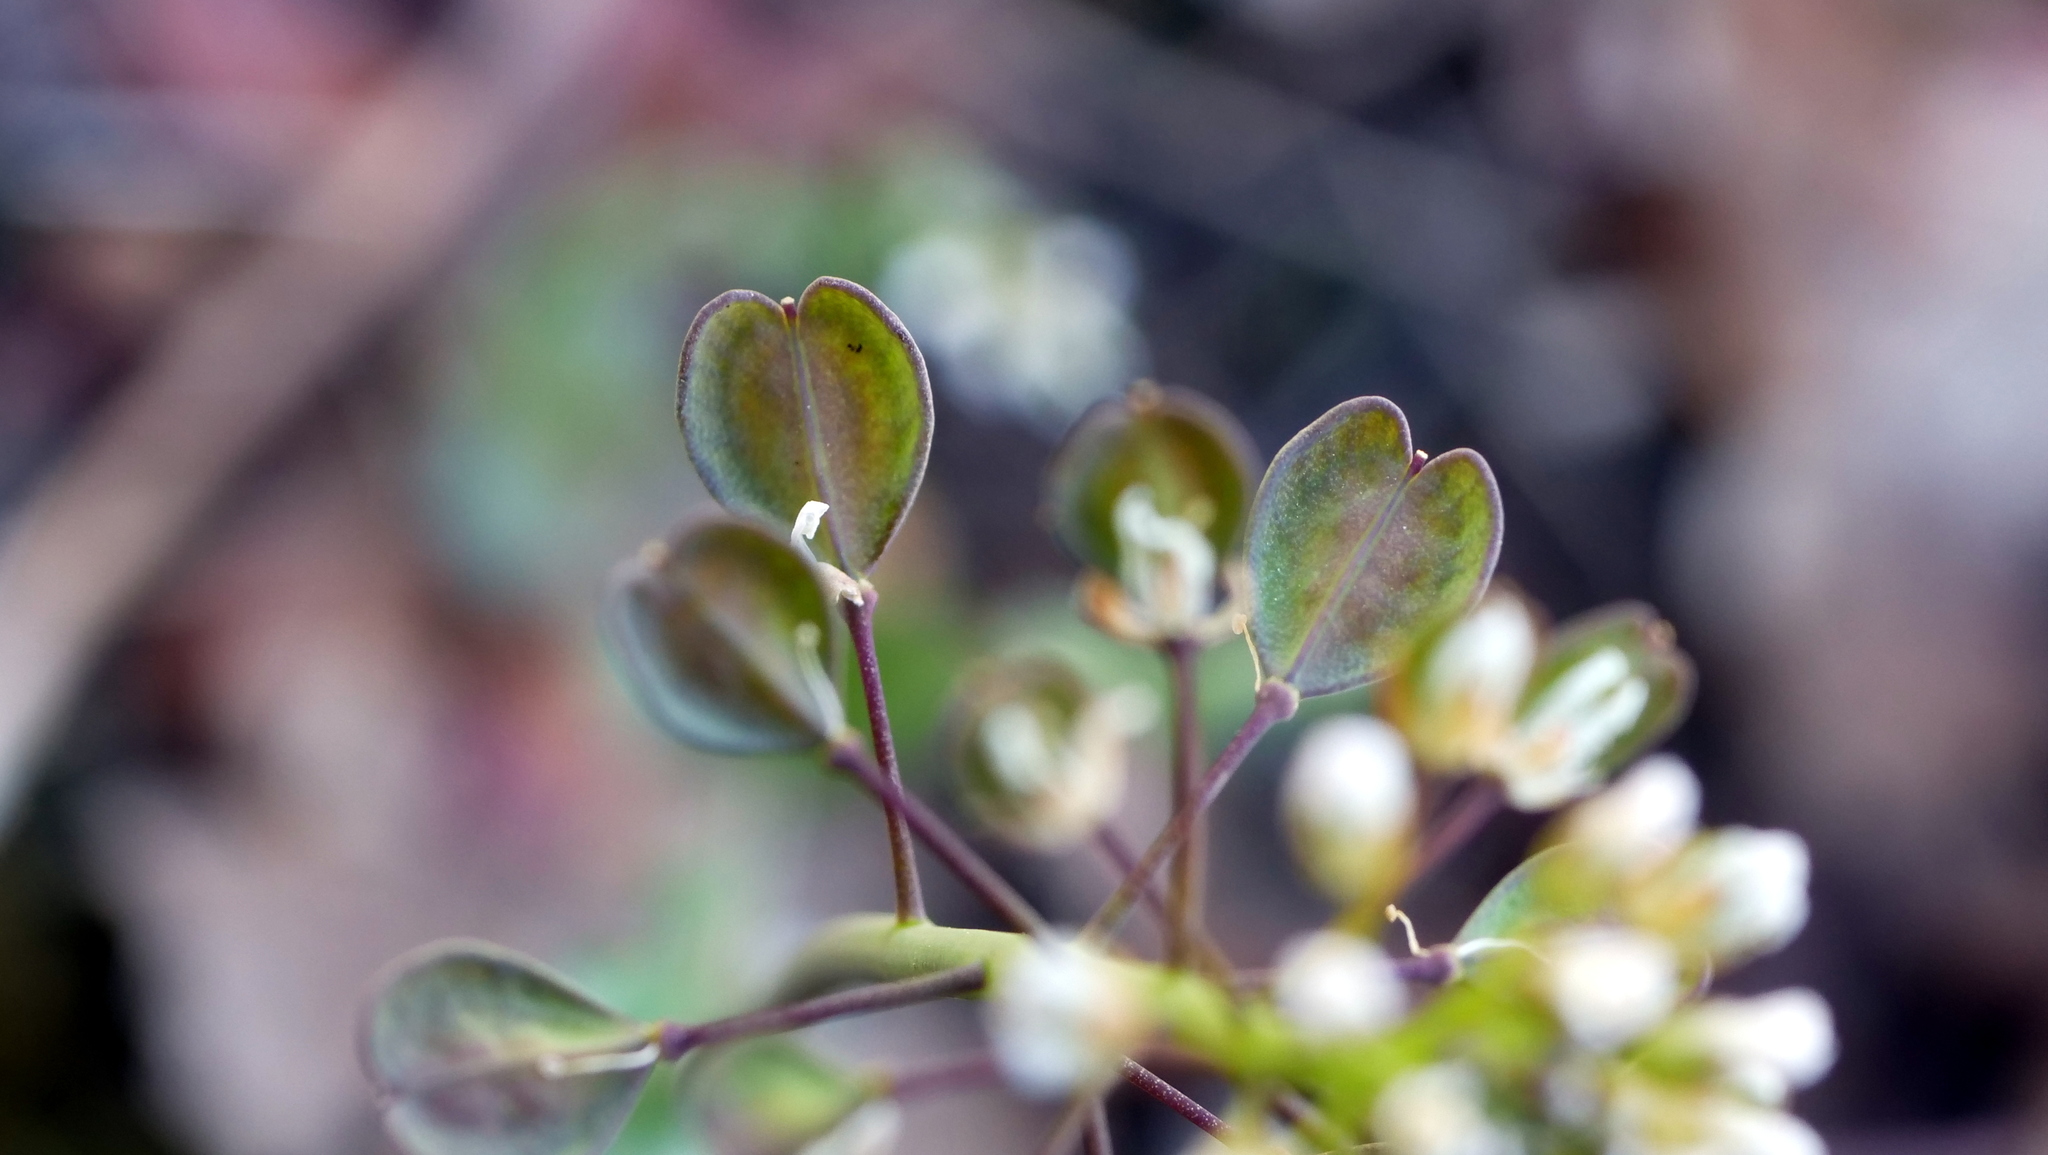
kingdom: Plantae
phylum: Tracheophyta
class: Magnoliopsida
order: Brassicales
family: Brassicaceae
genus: Noccaea
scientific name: Noccaea perfoliata
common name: Perfoliate pennycress
